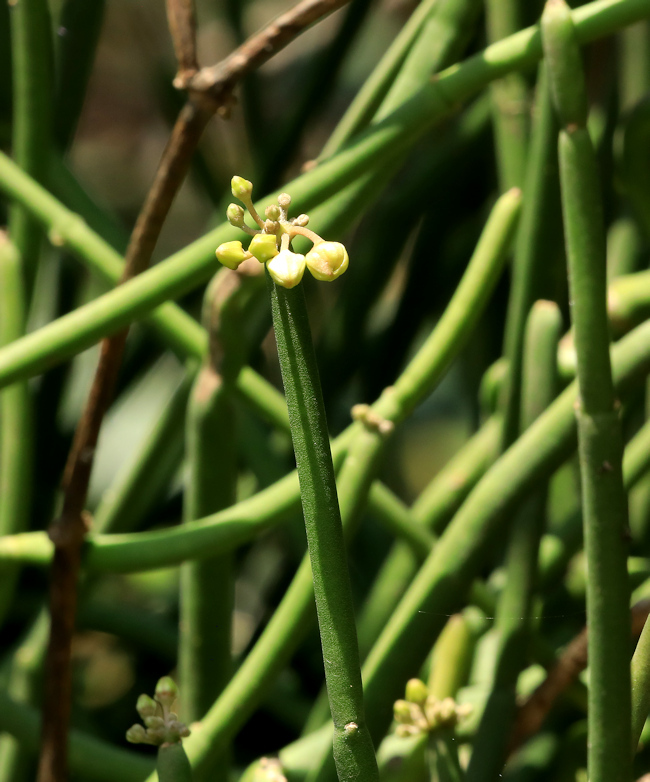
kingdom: Plantae
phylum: Tracheophyta
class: Magnoliopsida
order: Gentianales
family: Apocynaceae
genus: Cynanchum
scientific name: Cynanchum viminale
